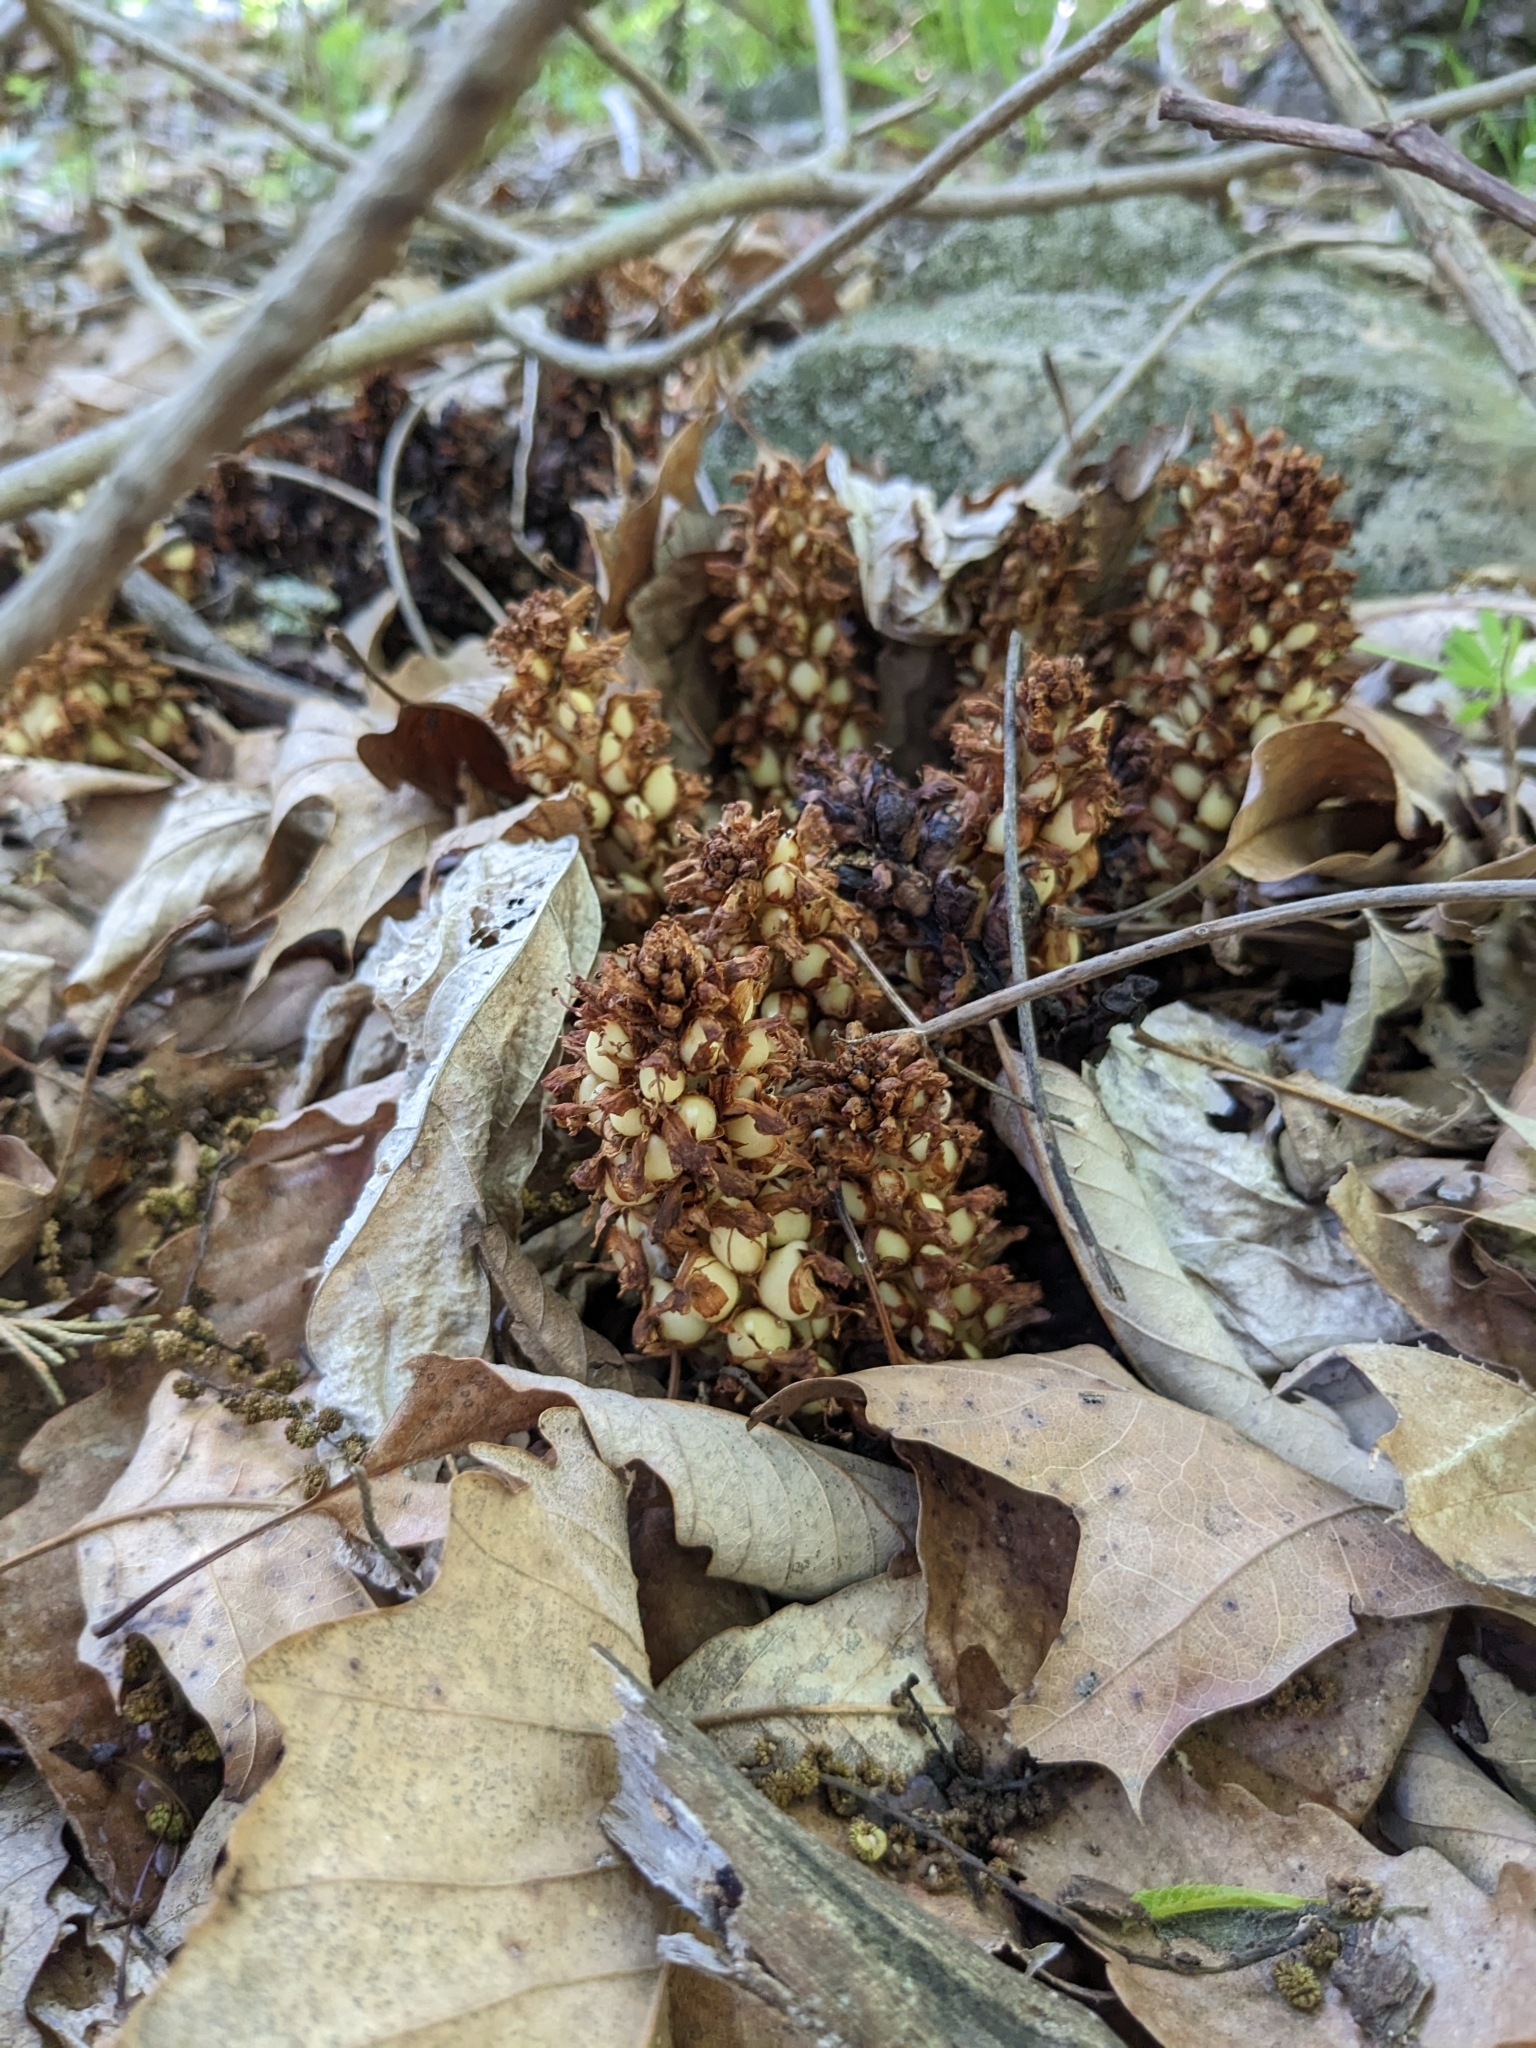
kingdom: Plantae
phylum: Tracheophyta
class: Magnoliopsida
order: Lamiales
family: Orobanchaceae
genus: Conopholis
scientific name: Conopholis americana
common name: American cancer-root
